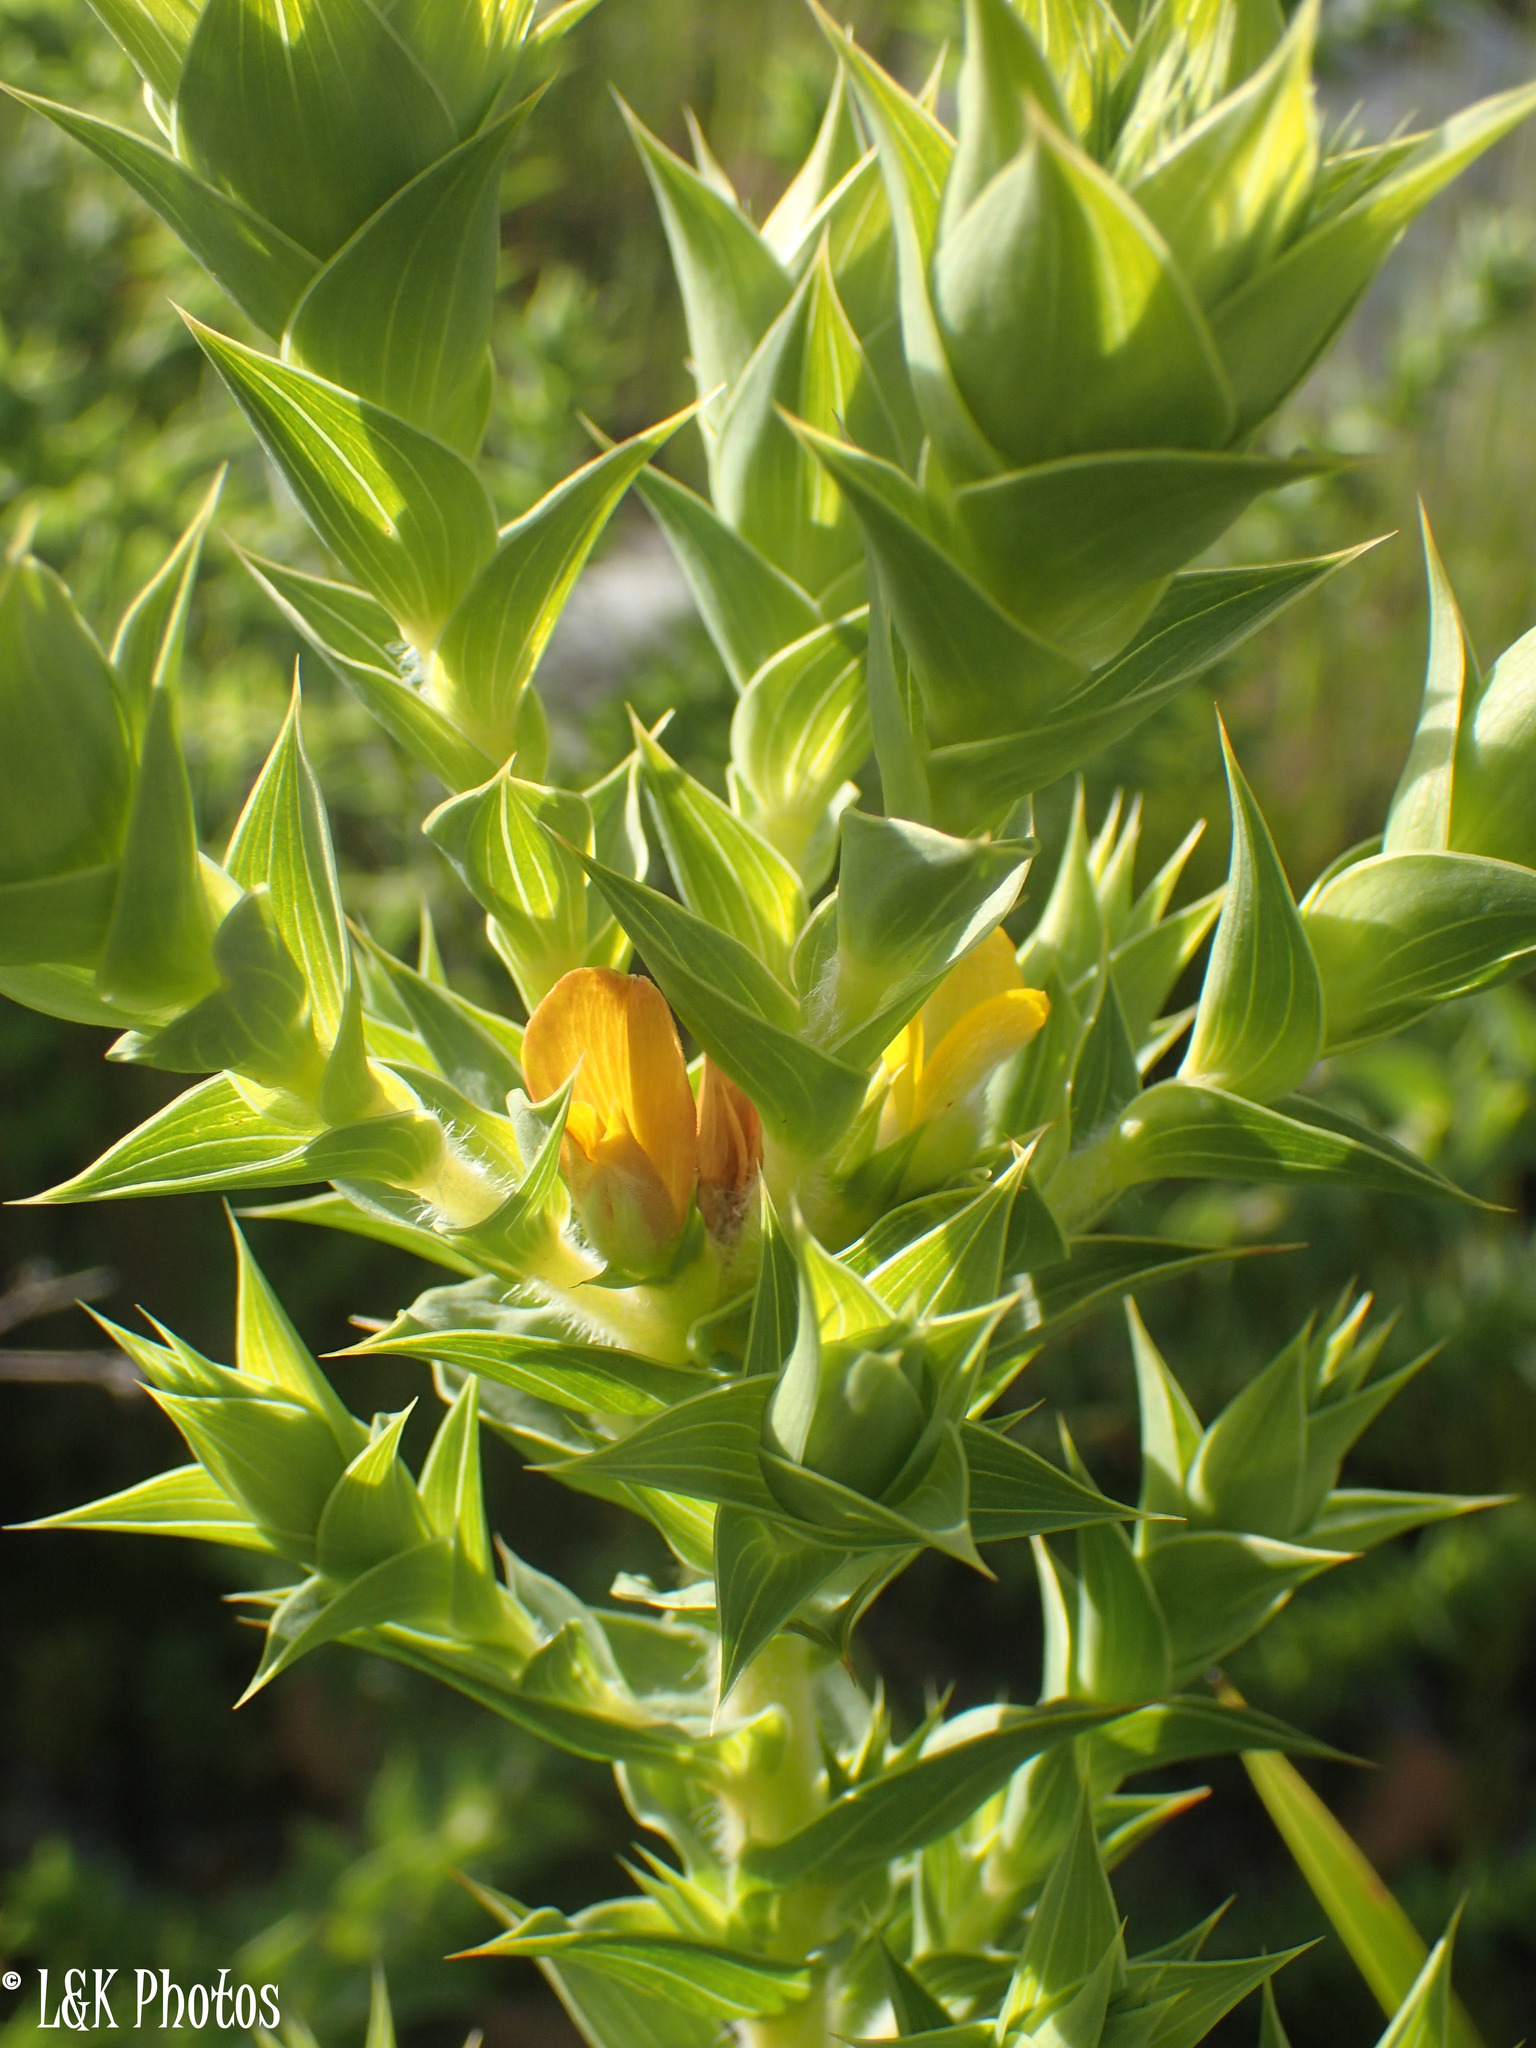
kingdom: Plantae
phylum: Tracheophyta
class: Magnoliopsida
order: Fabales
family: Fabaceae
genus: Aspalathus
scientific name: Aspalathus cordata
